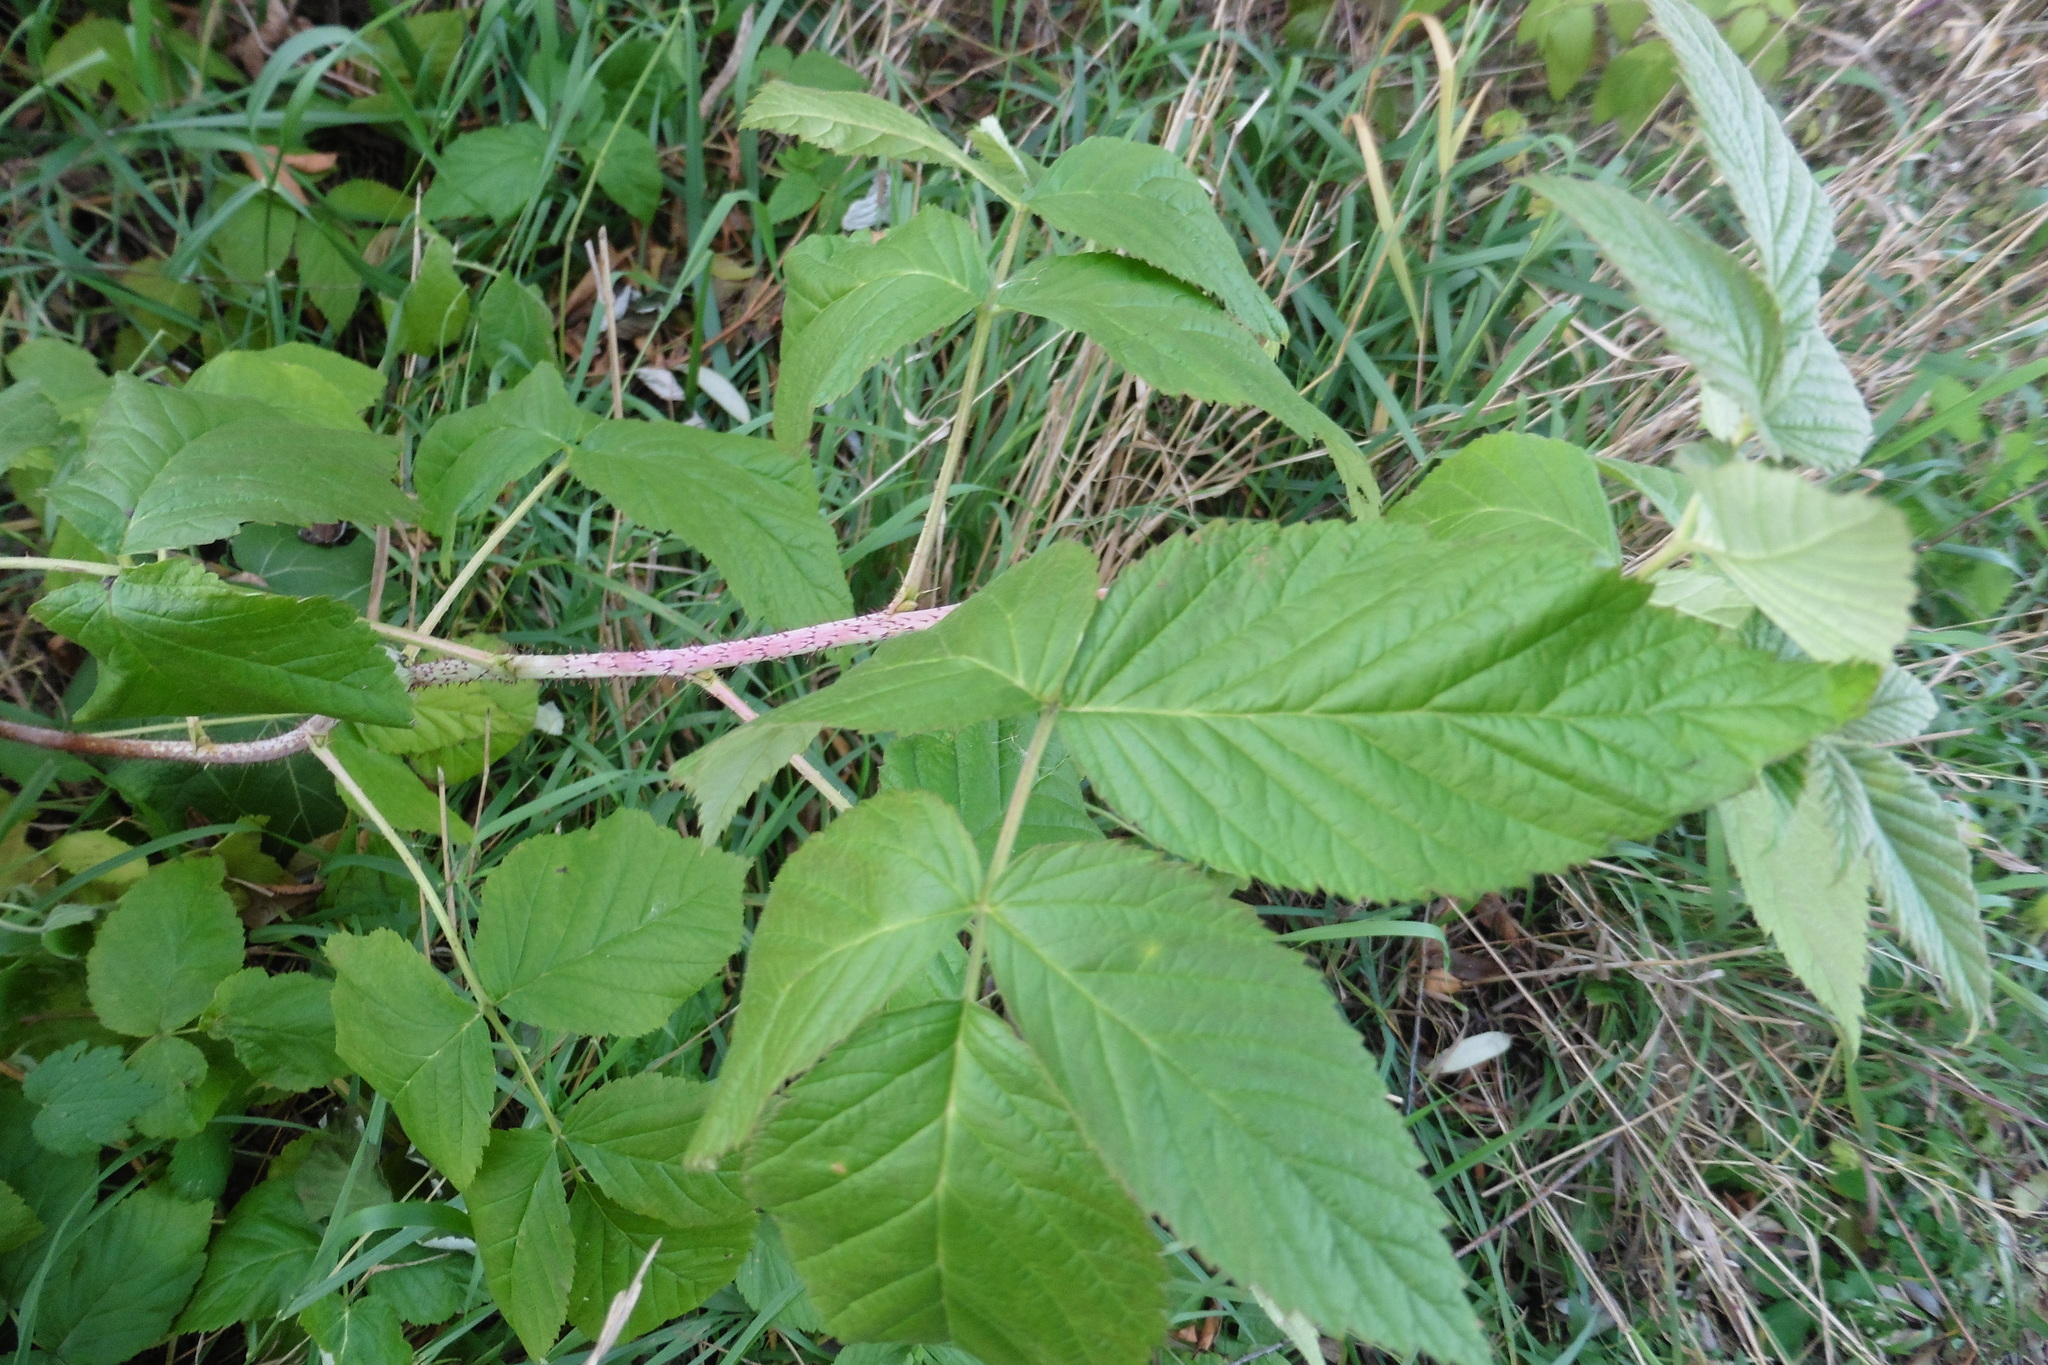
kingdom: Plantae
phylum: Tracheophyta
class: Magnoliopsida
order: Rosales
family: Rosaceae
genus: Rubus
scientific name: Rubus idaeus
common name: Raspberry
